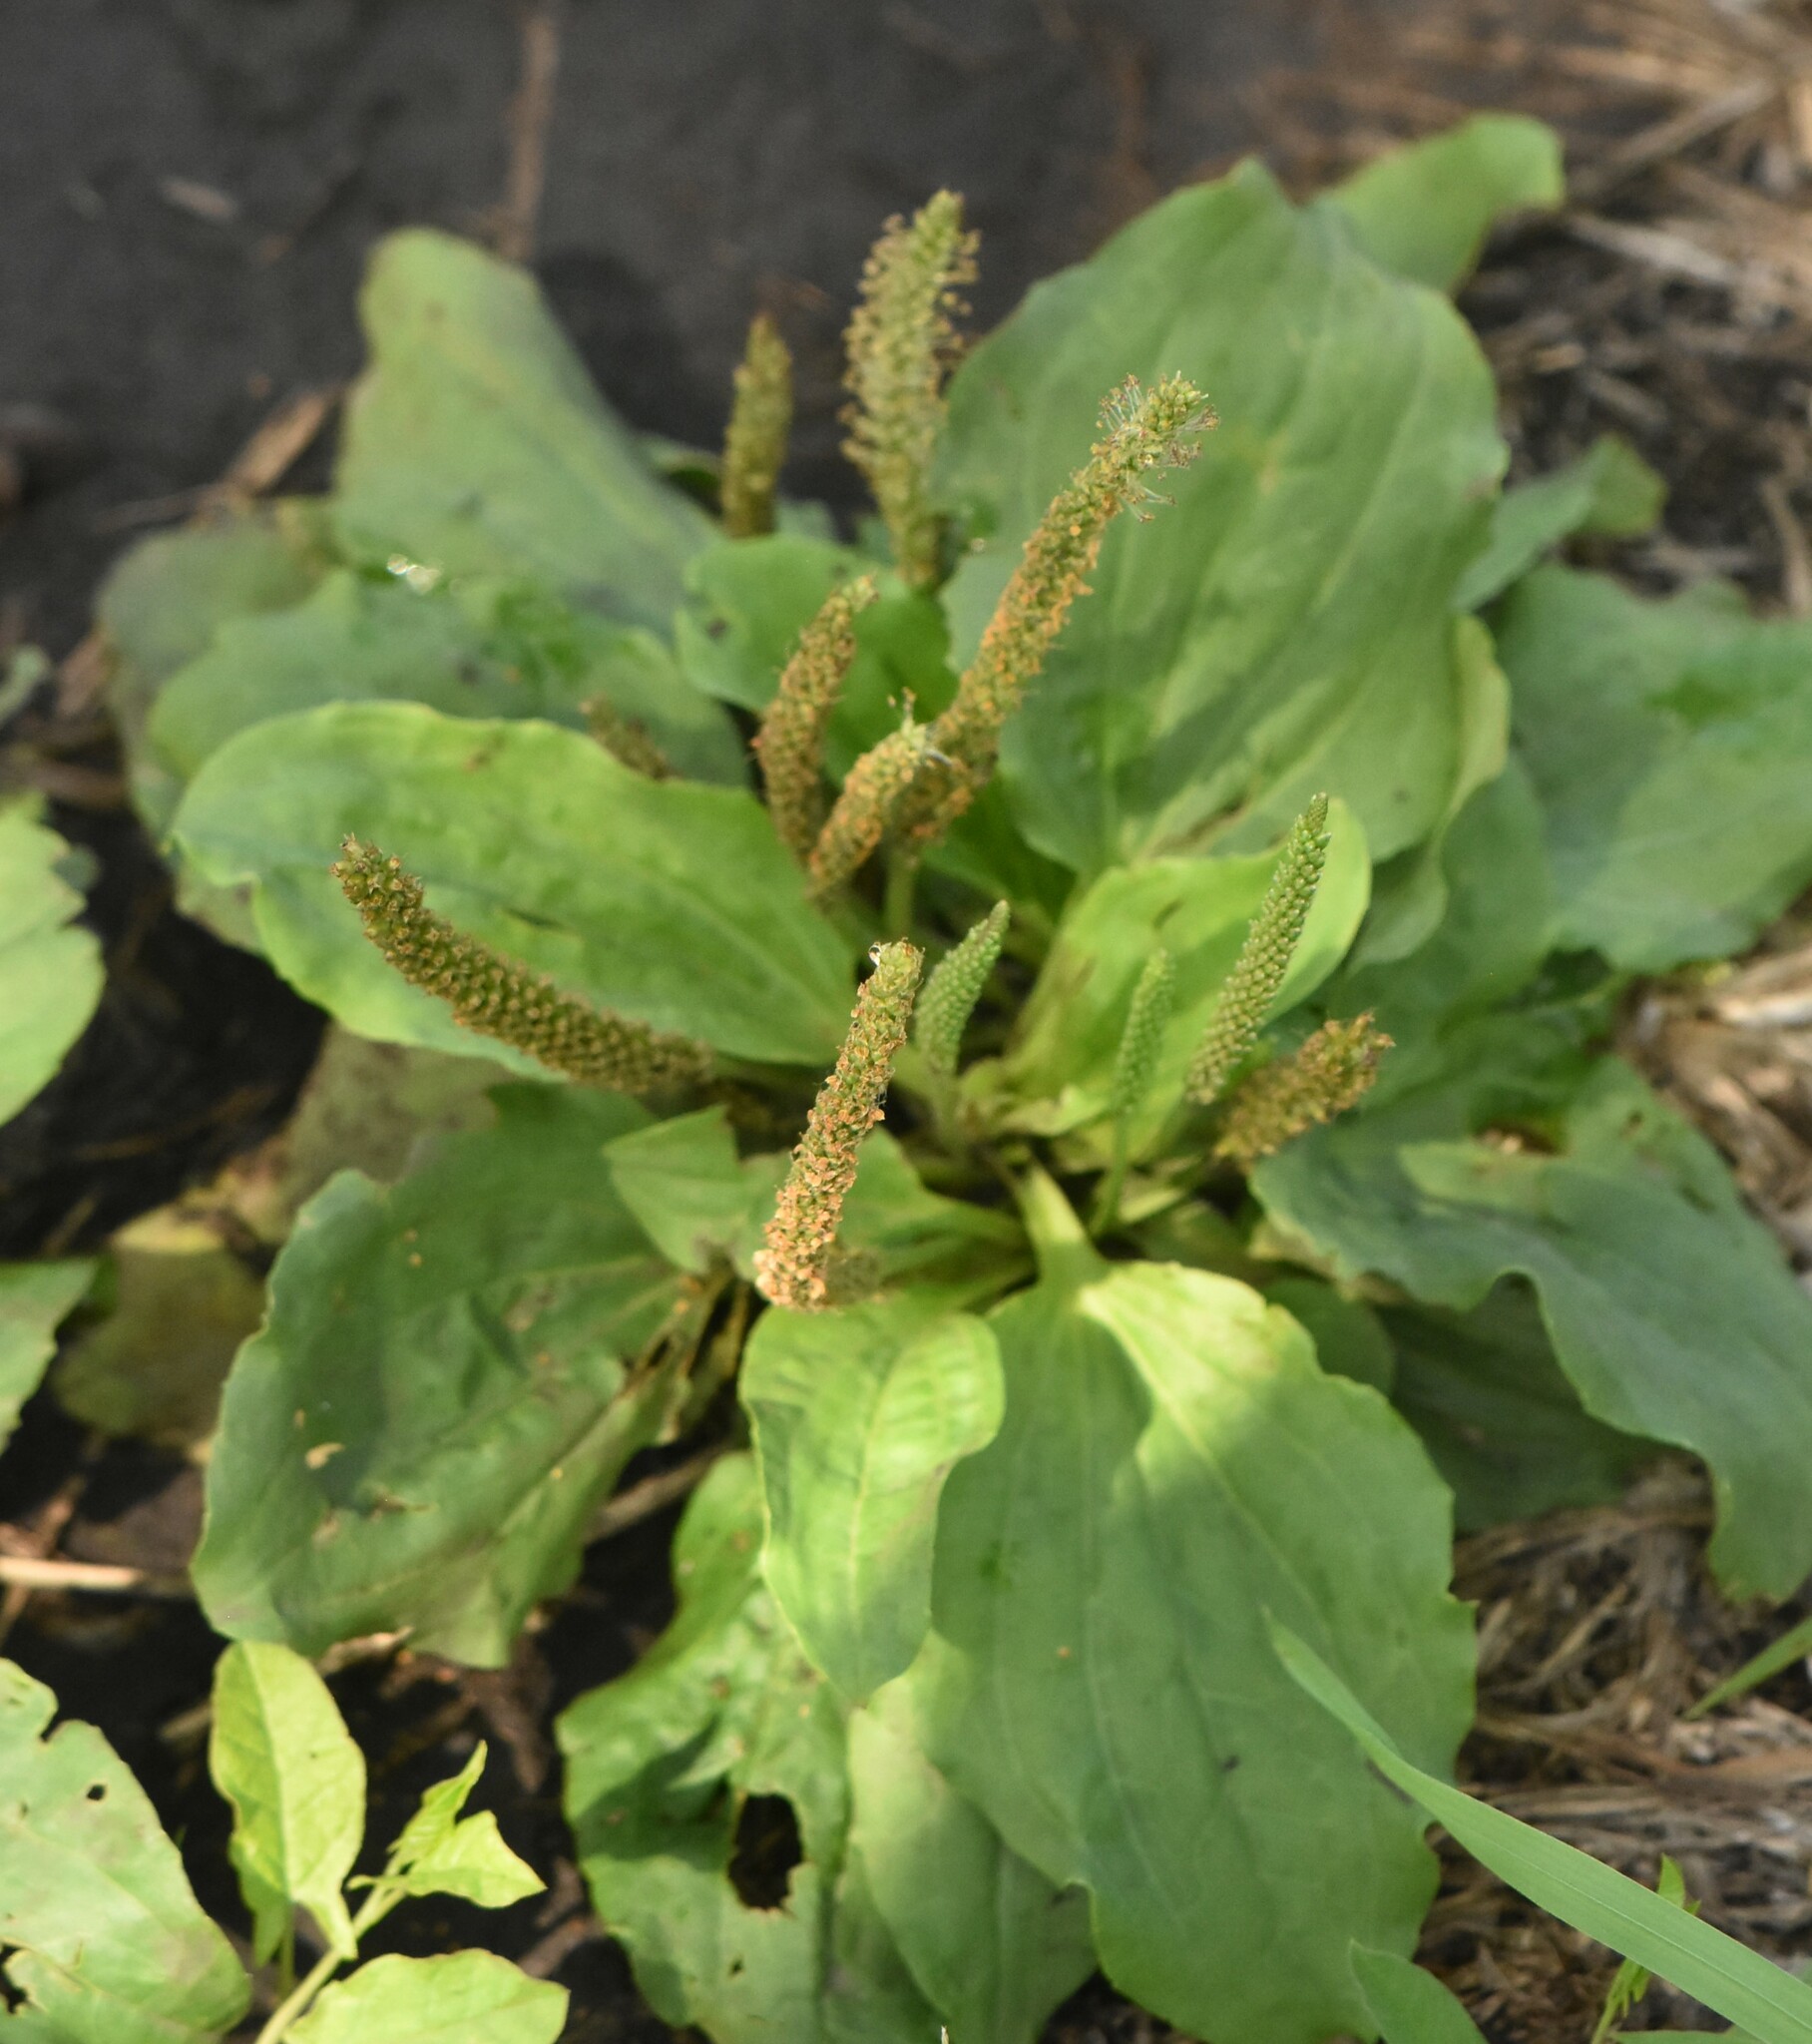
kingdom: Plantae
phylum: Tracheophyta
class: Magnoliopsida
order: Lamiales
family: Plantaginaceae
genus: Plantago
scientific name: Plantago major
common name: Common plantain
